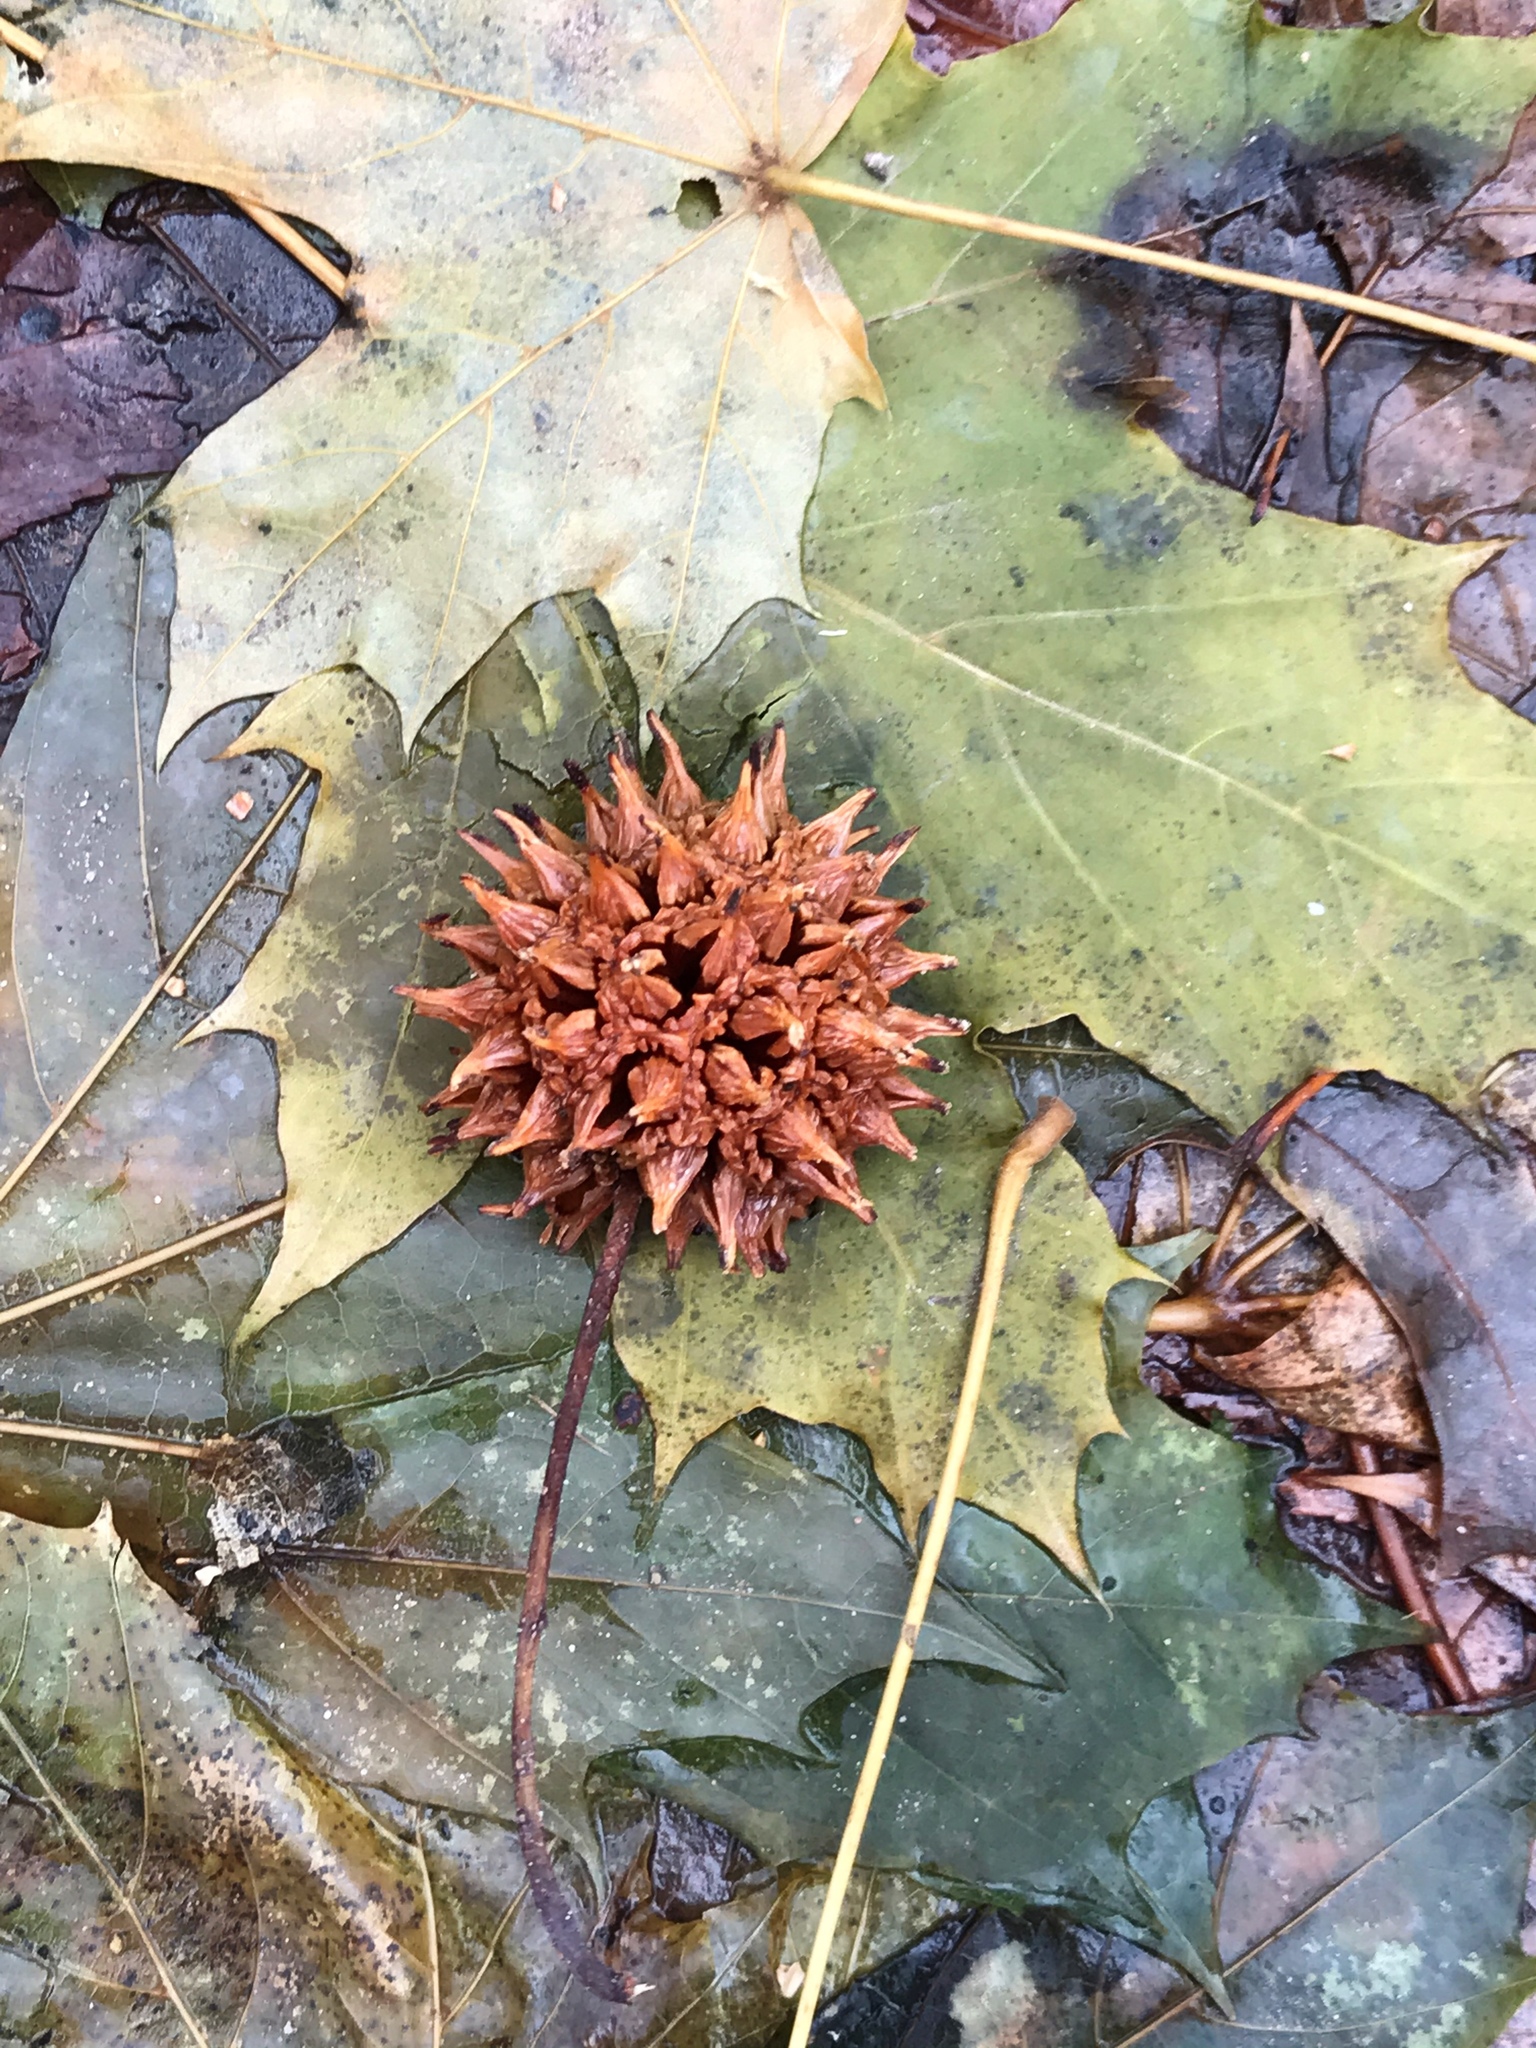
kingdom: Plantae
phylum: Tracheophyta
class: Magnoliopsida
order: Saxifragales
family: Altingiaceae
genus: Liquidambar
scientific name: Liquidambar styraciflua
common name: Sweet gum
